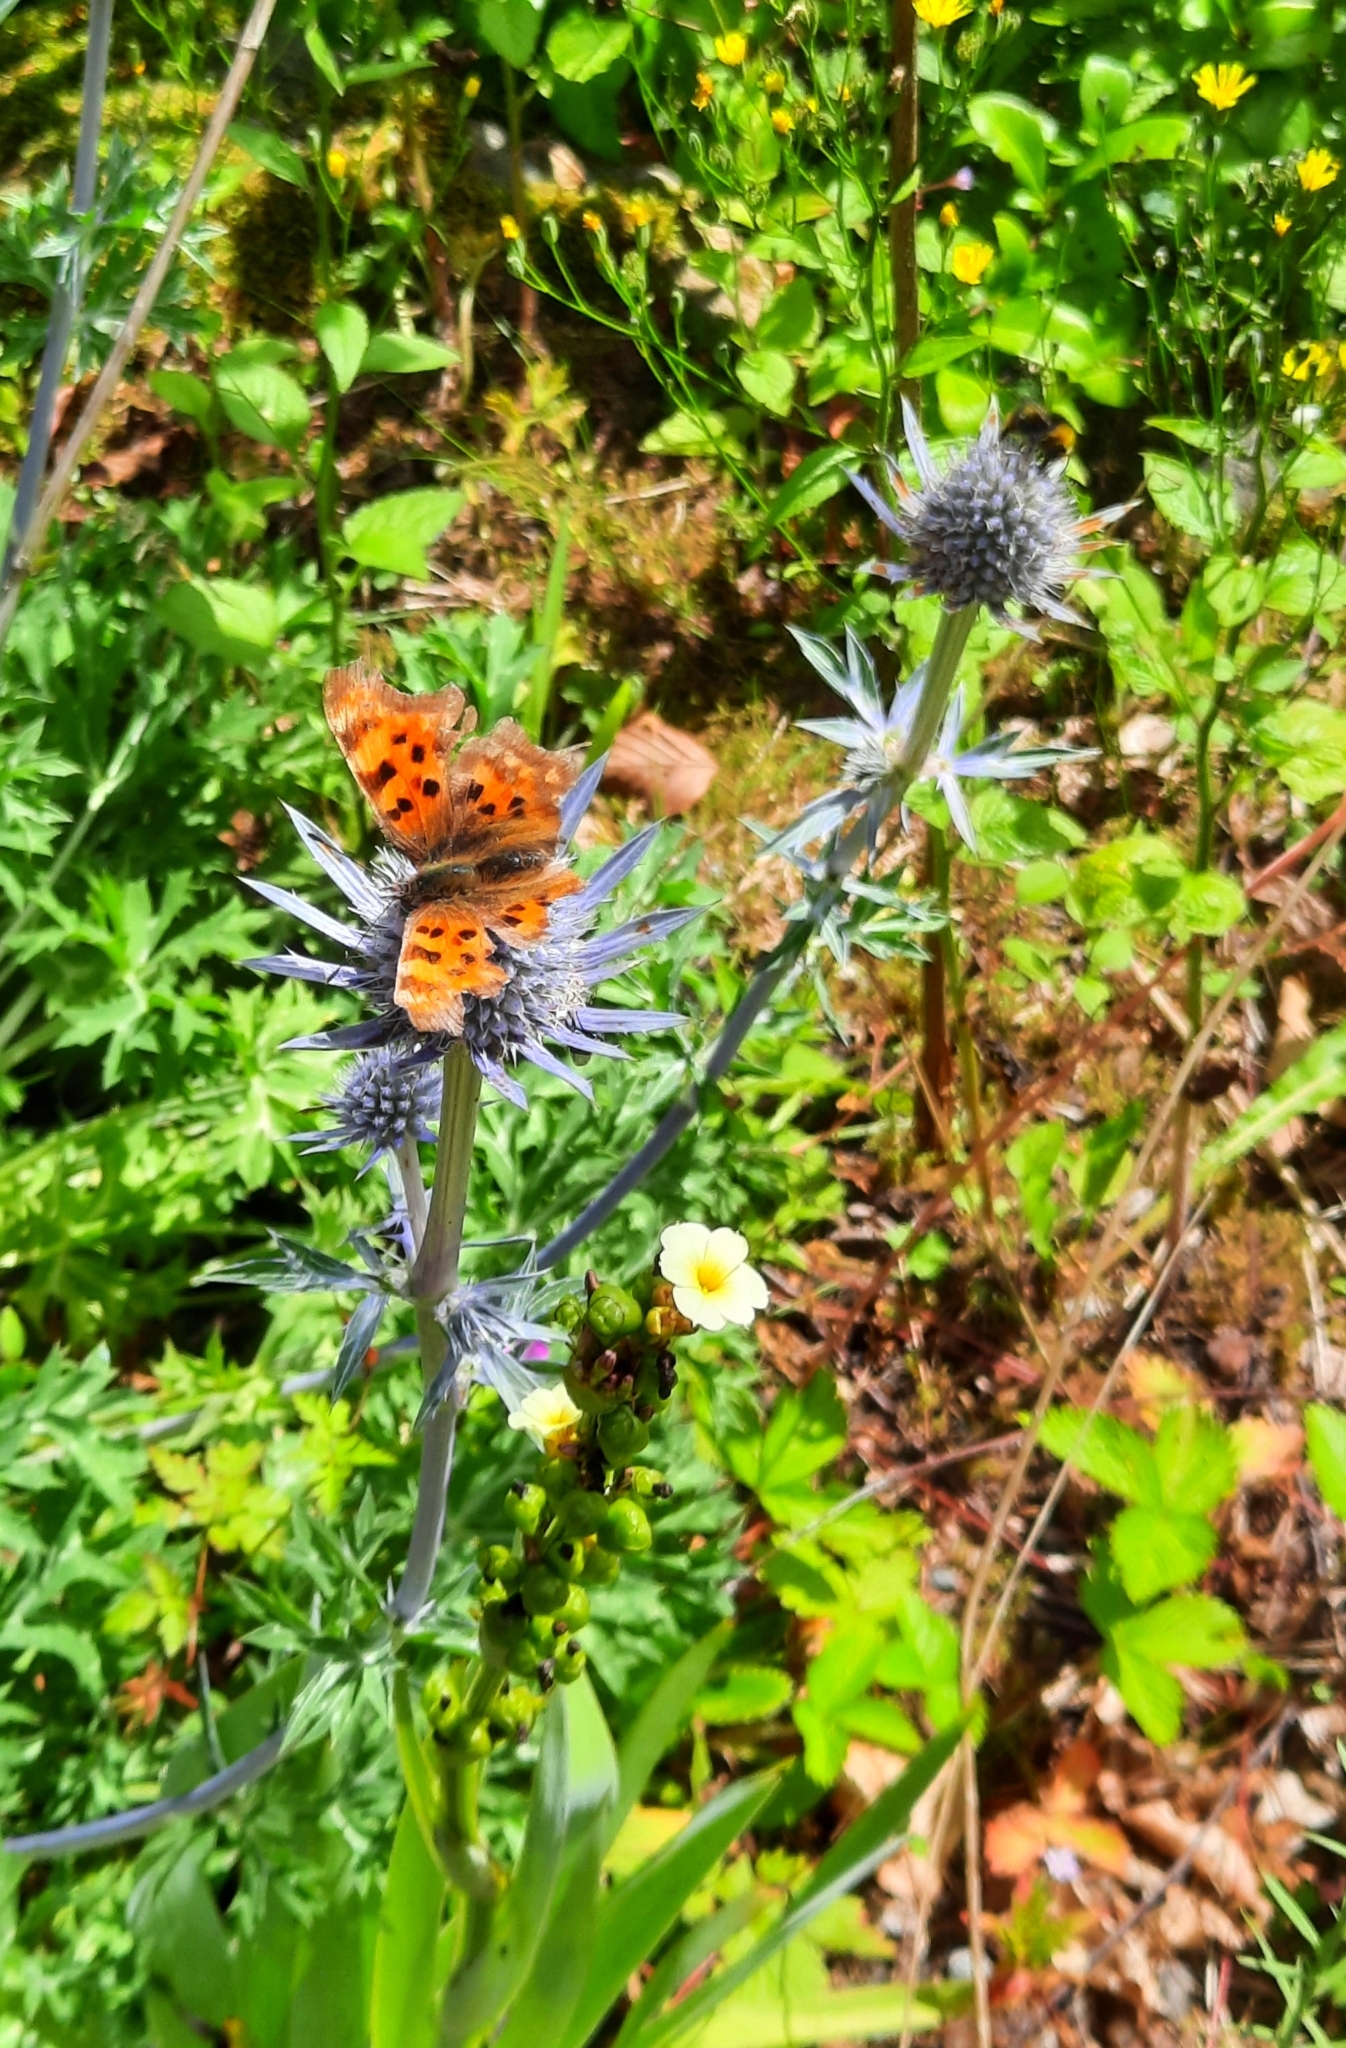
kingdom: Animalia
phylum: Arthropoda
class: Insecta
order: Lepidoptera
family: Nymphalidae
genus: Polygonia
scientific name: Polygonia c-album
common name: Comma
